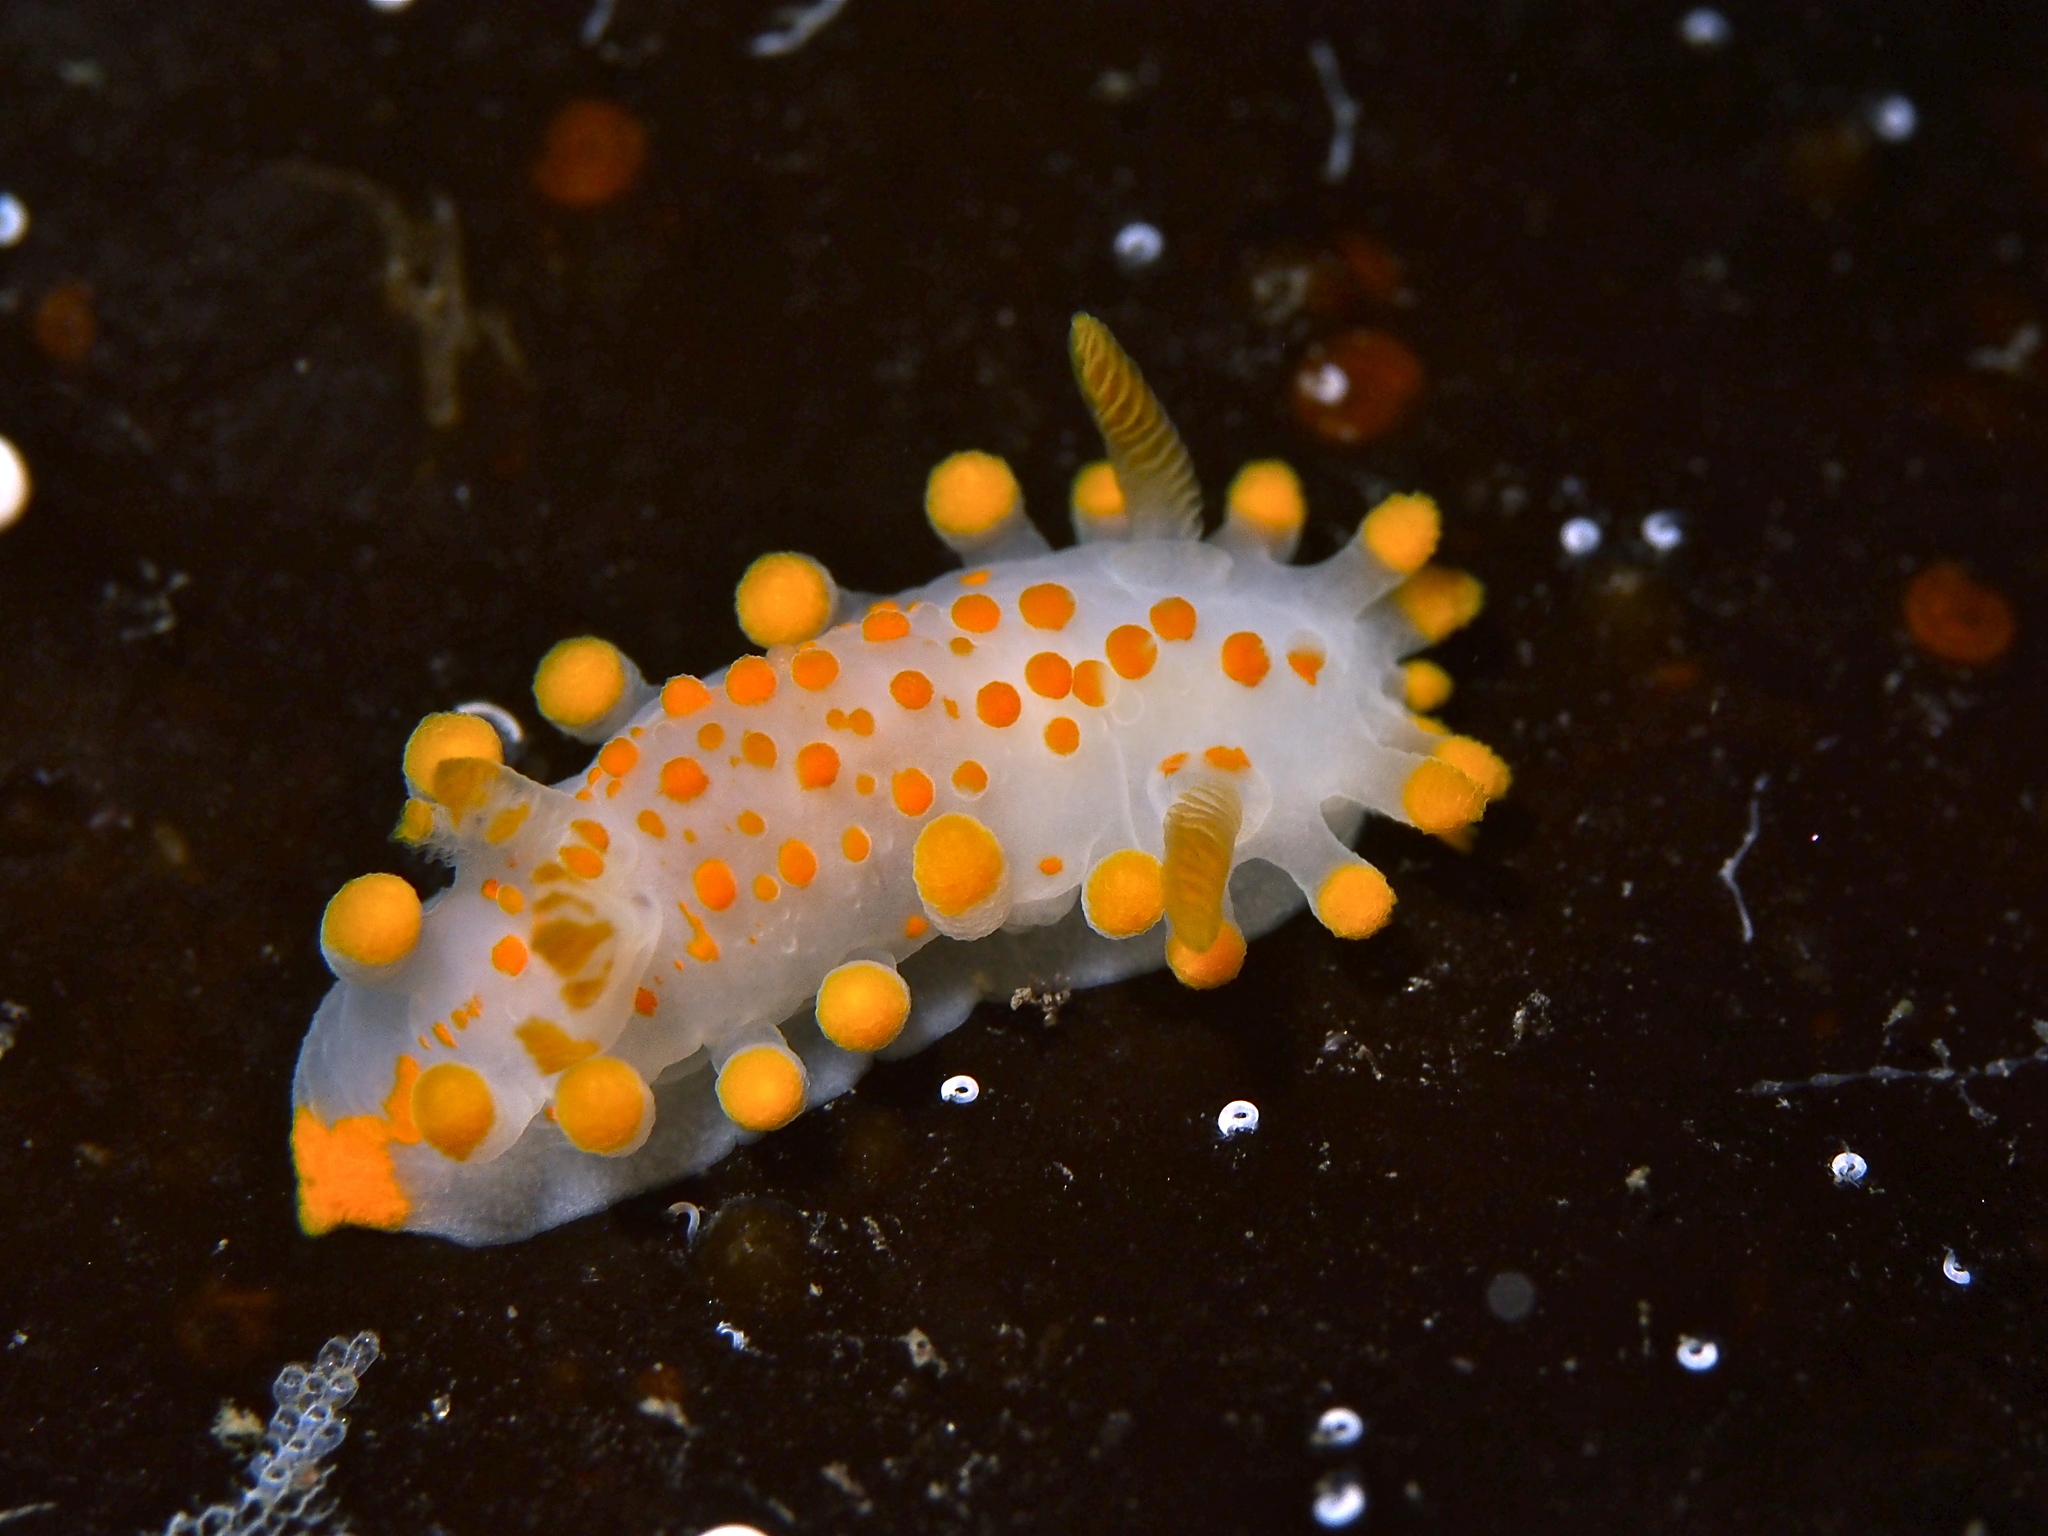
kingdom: Animalia
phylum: Mollusca
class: Gastropoda
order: Nudibranchia
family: Polyceridae
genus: Limacia
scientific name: Limacia clavigera
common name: Orange-clubbed sea slug
